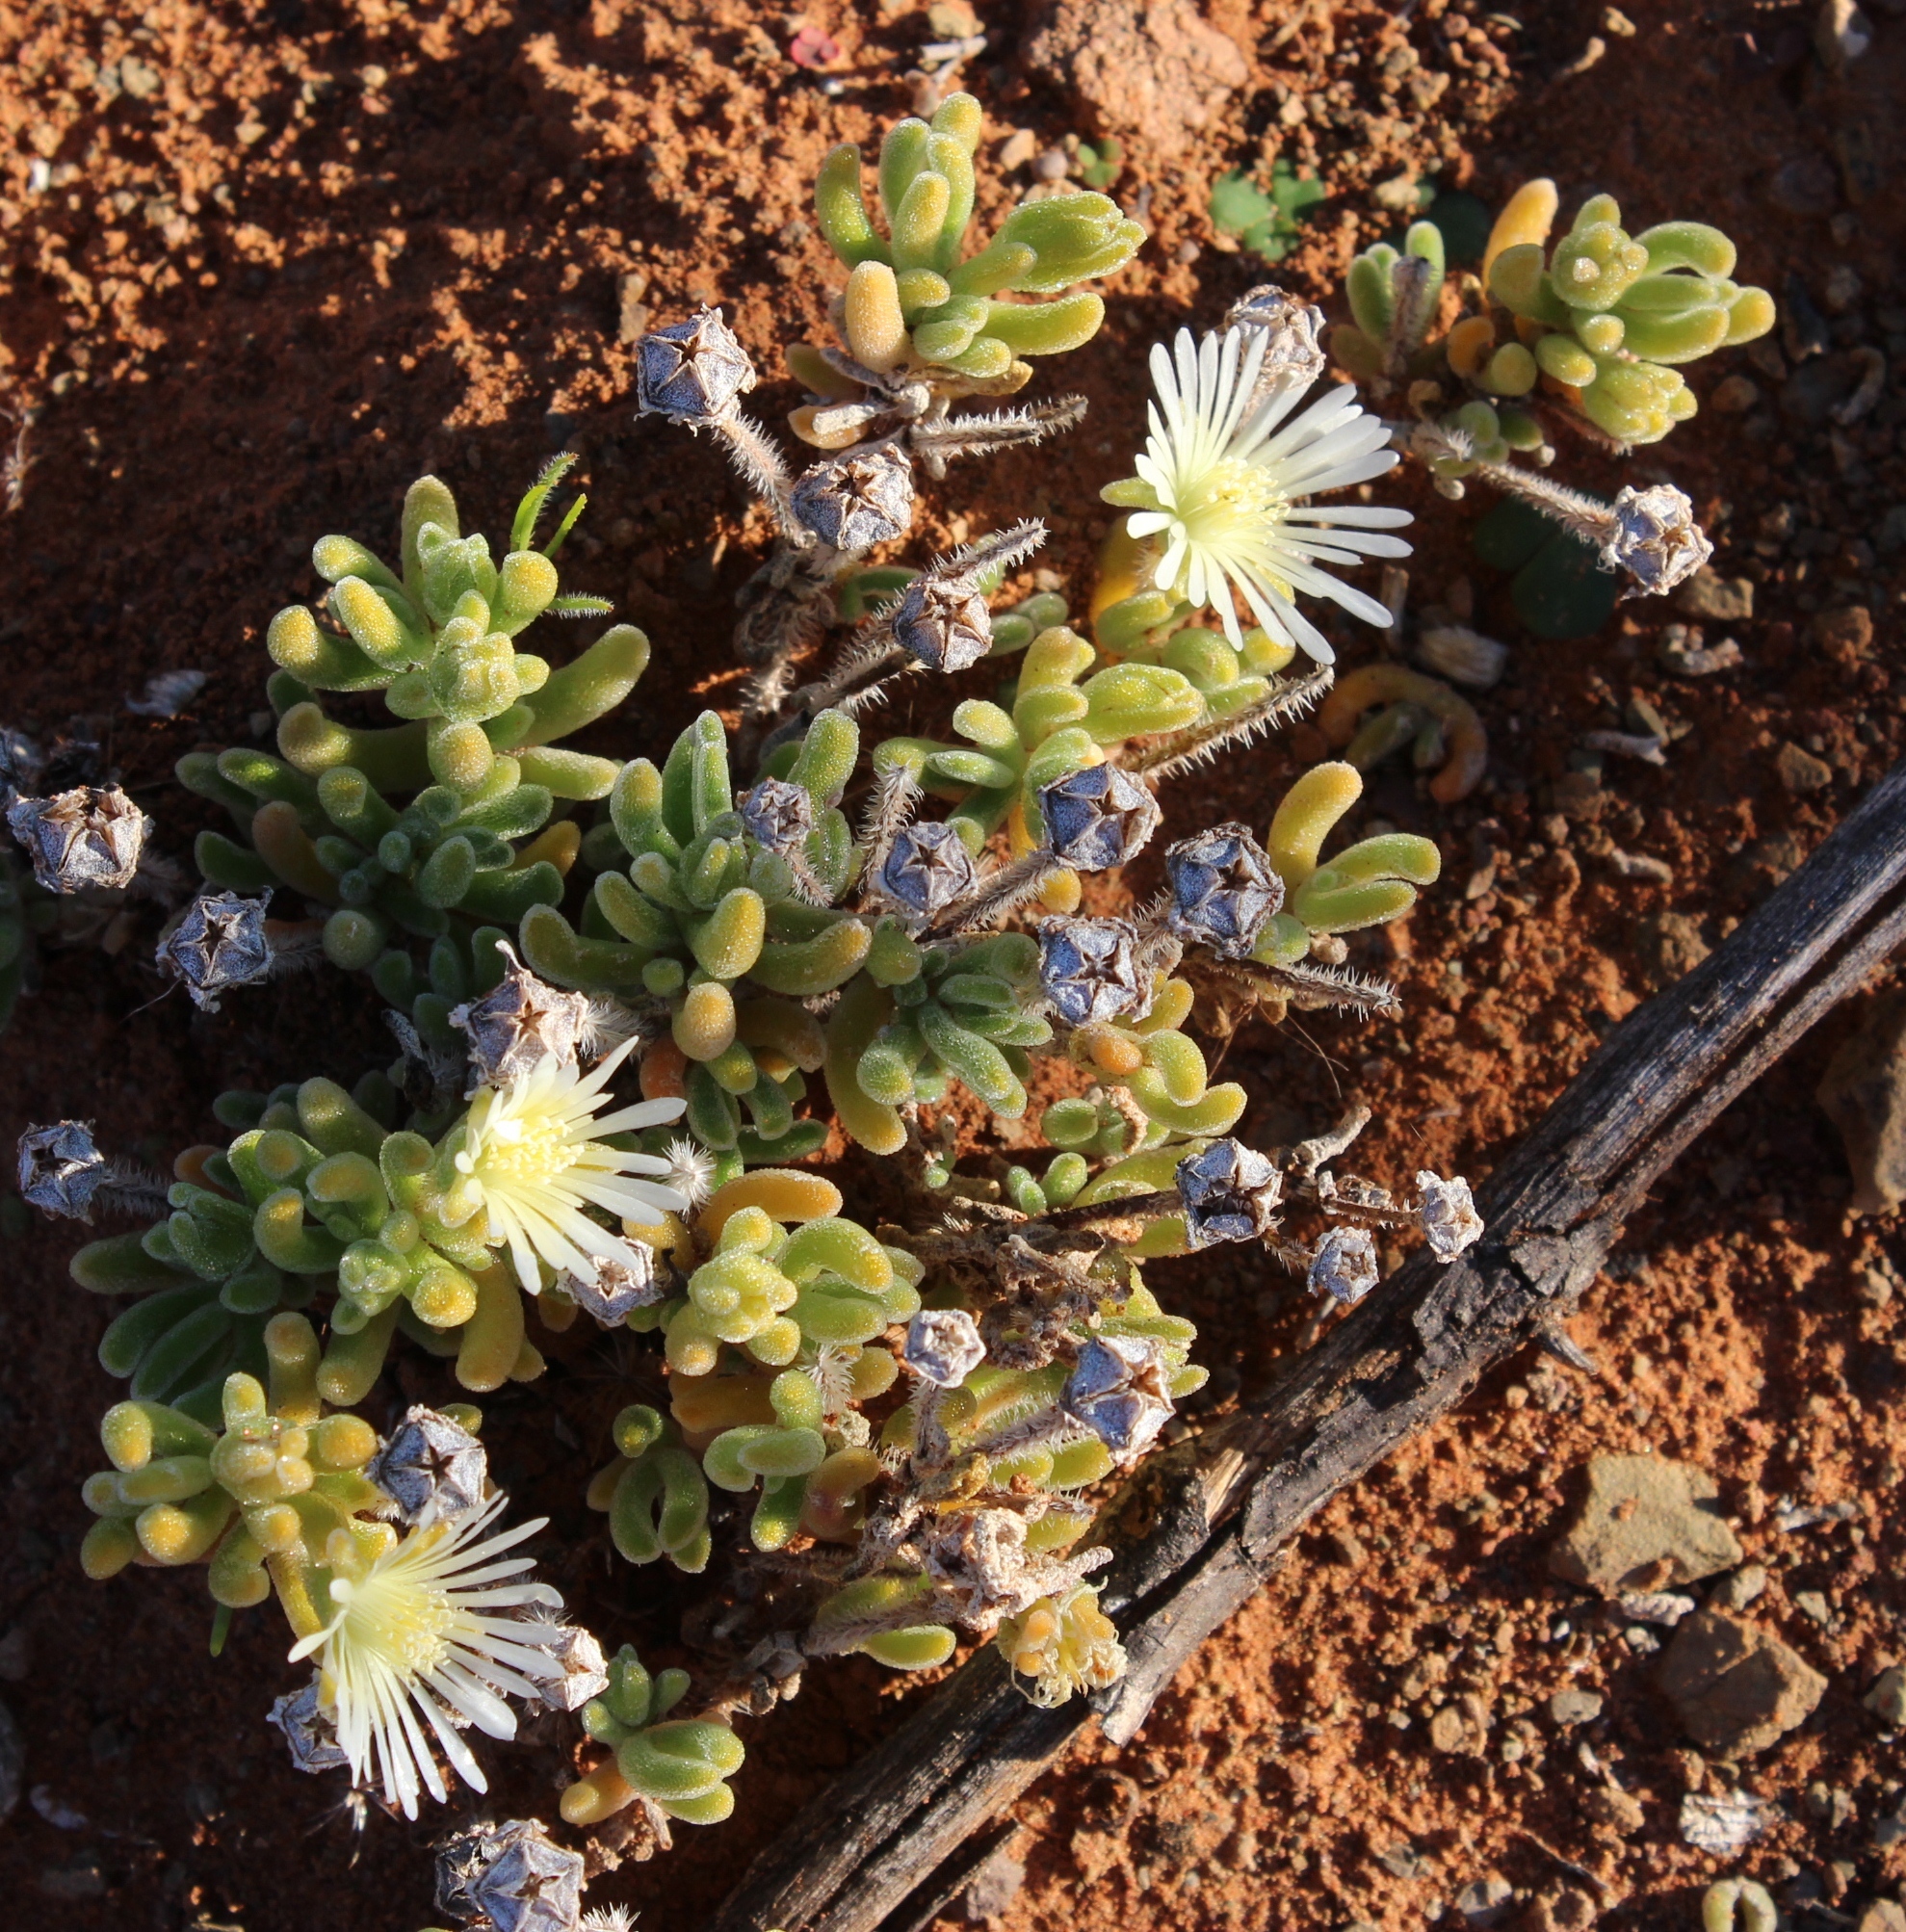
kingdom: Plantae
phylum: Tracheophyta
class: Magnoliopsida
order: Caryophyllales
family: Aizoaceae
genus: Drosanthemum
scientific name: Drosanthemum eburneum
